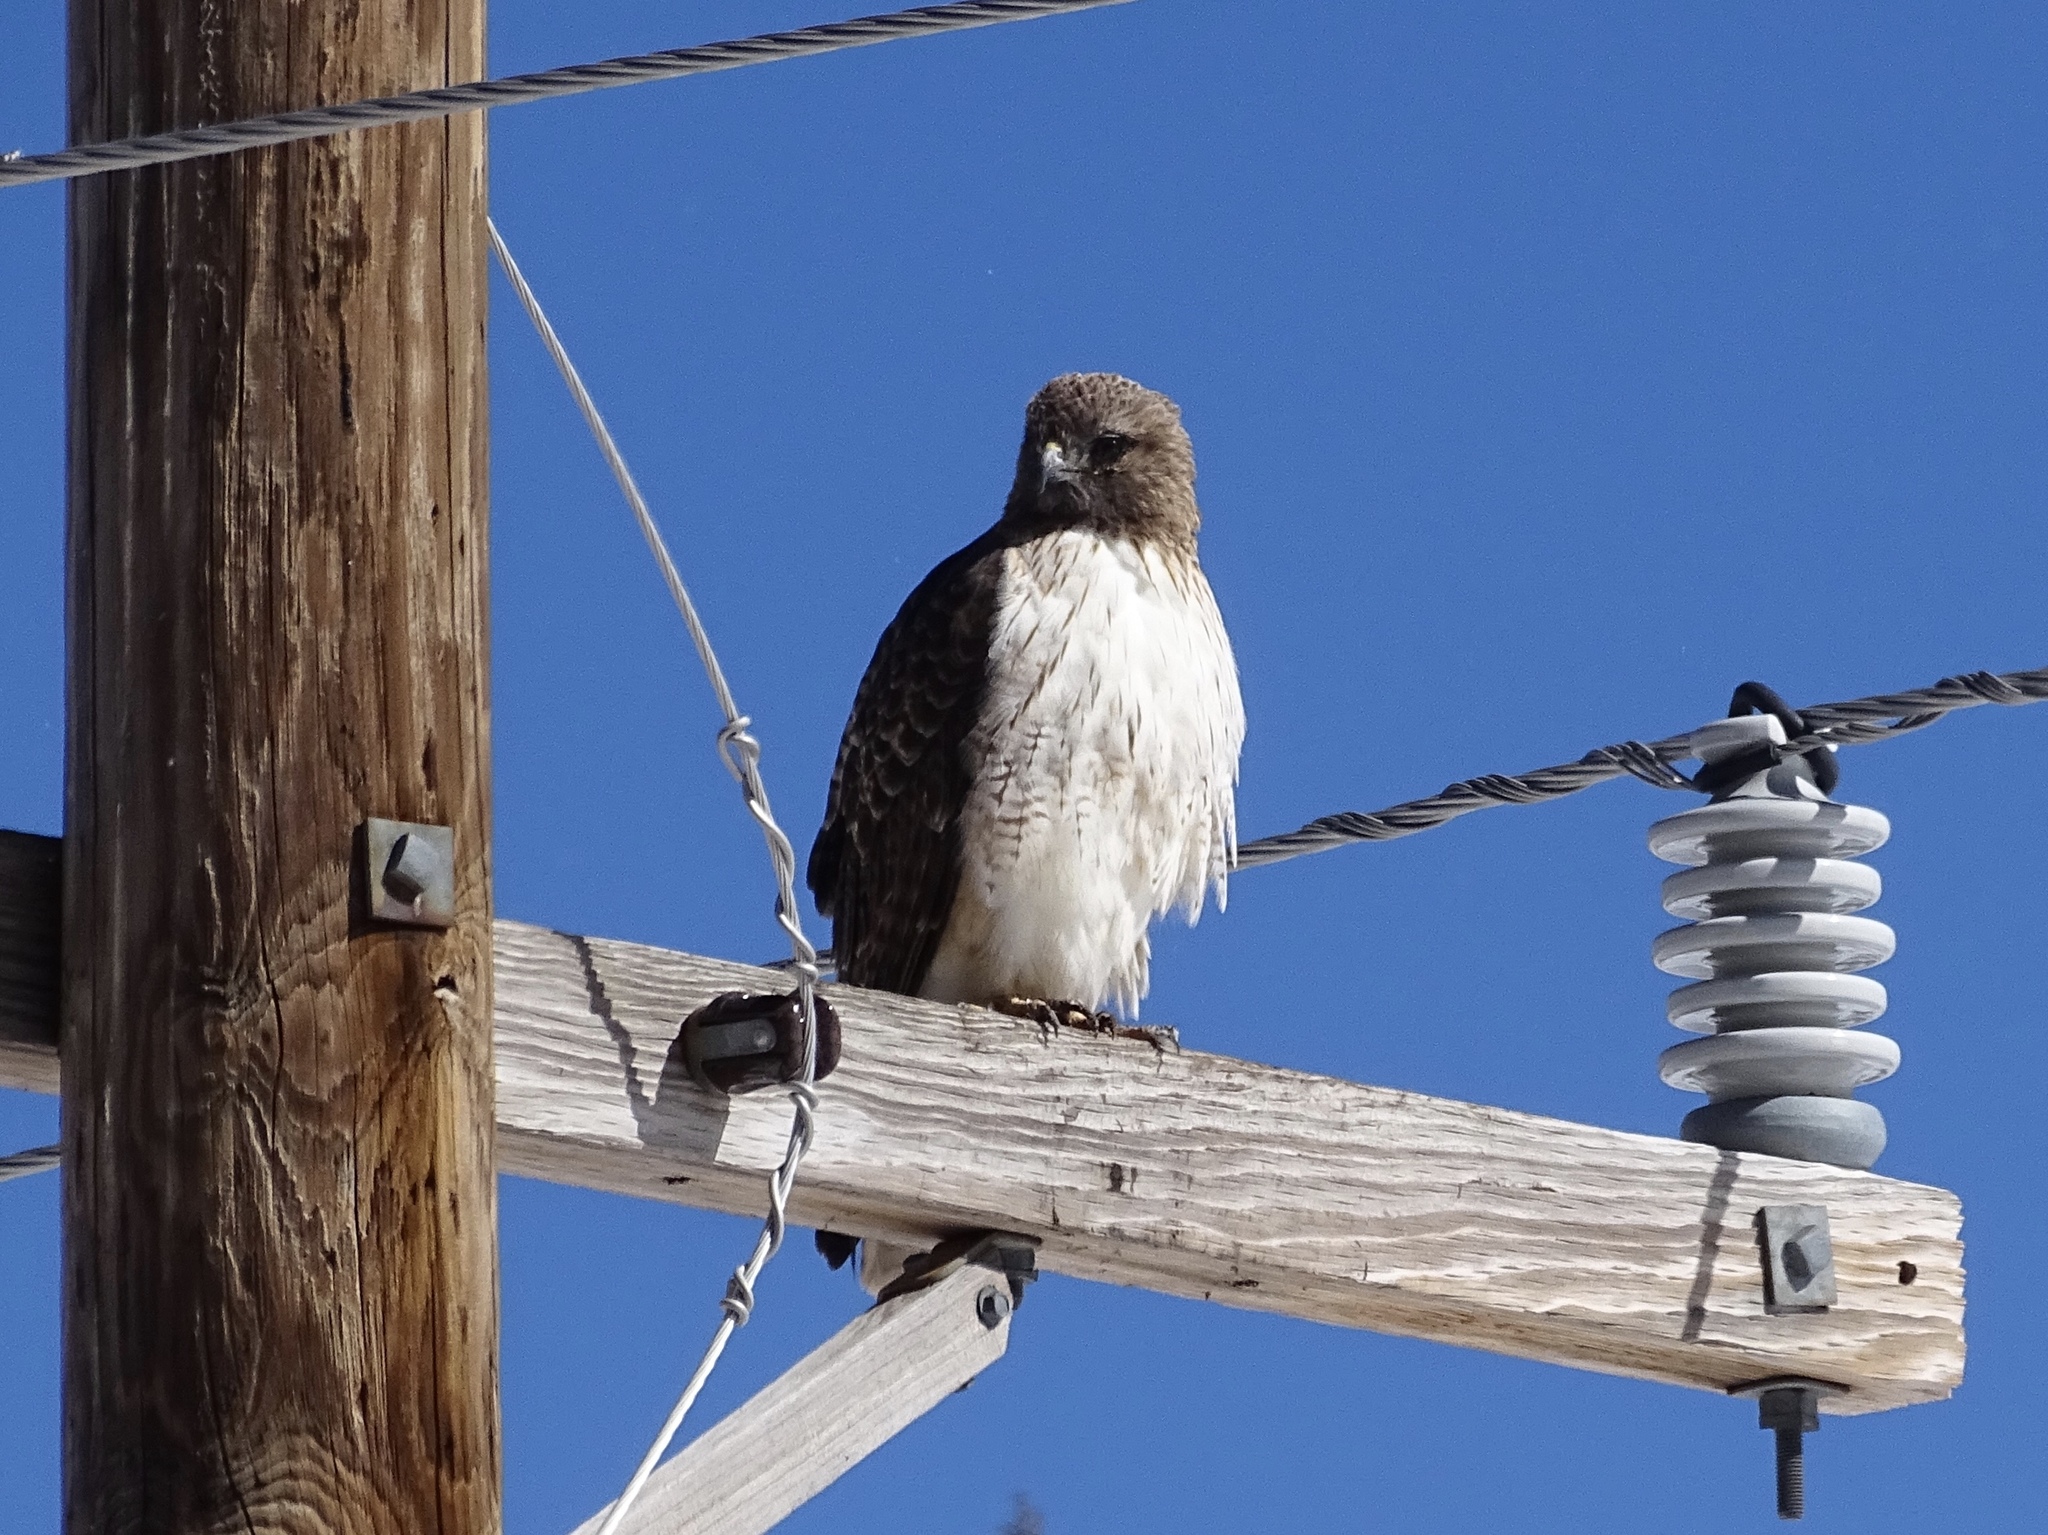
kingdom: Animalia
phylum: Chordata
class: Aves
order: Accipitriformes
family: Accipitridae
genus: Buteo
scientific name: Buteo jamaicensis
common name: Red-tailed hawk
